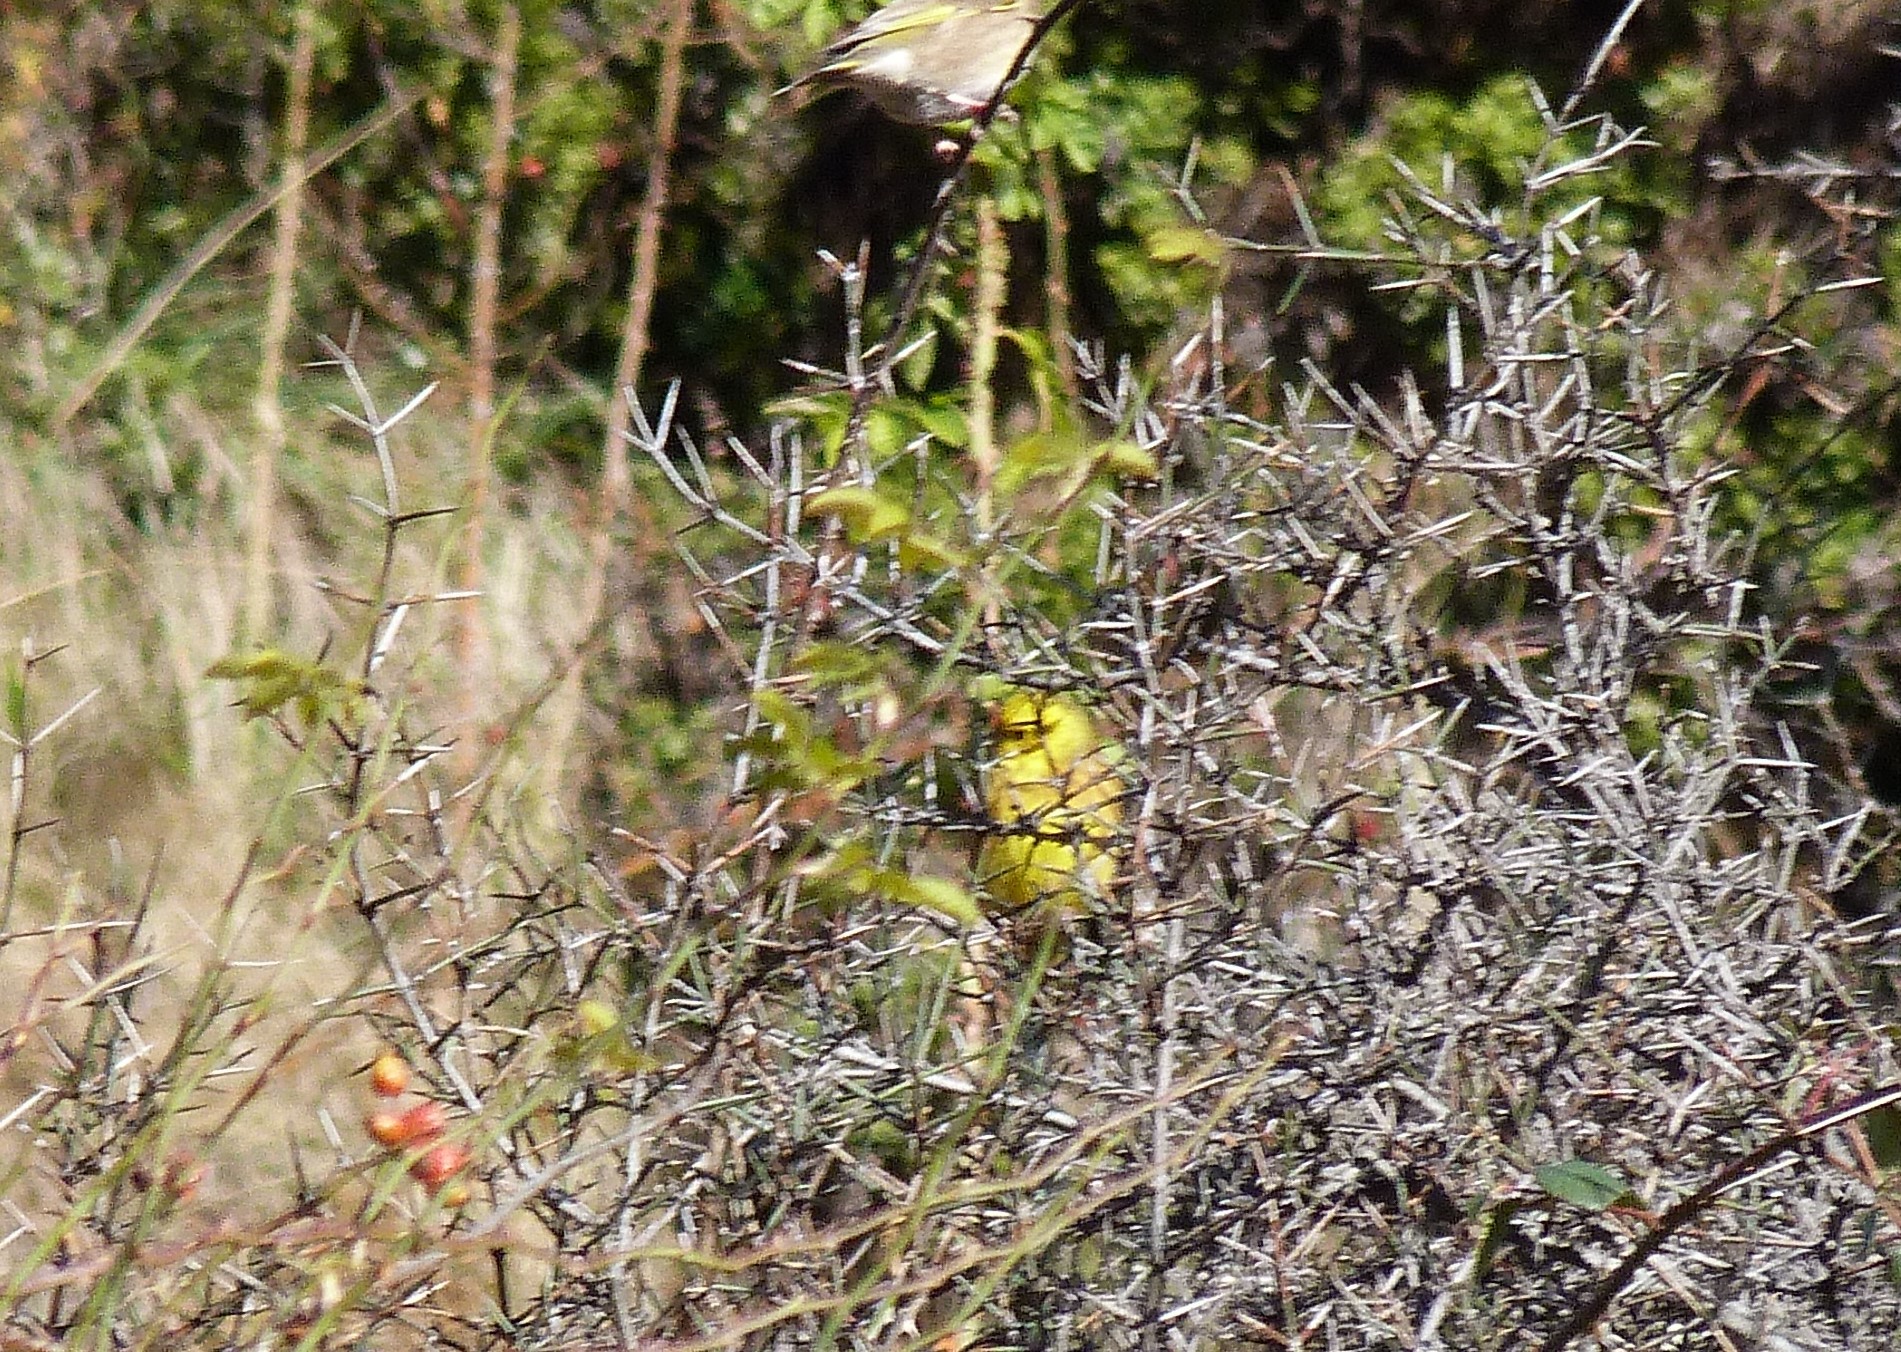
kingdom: Animalia
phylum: Chordata
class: Aves
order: Passeriformes
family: Emberizidae
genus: Emberiza
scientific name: Emberiza citrinella
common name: Yellowhammer
